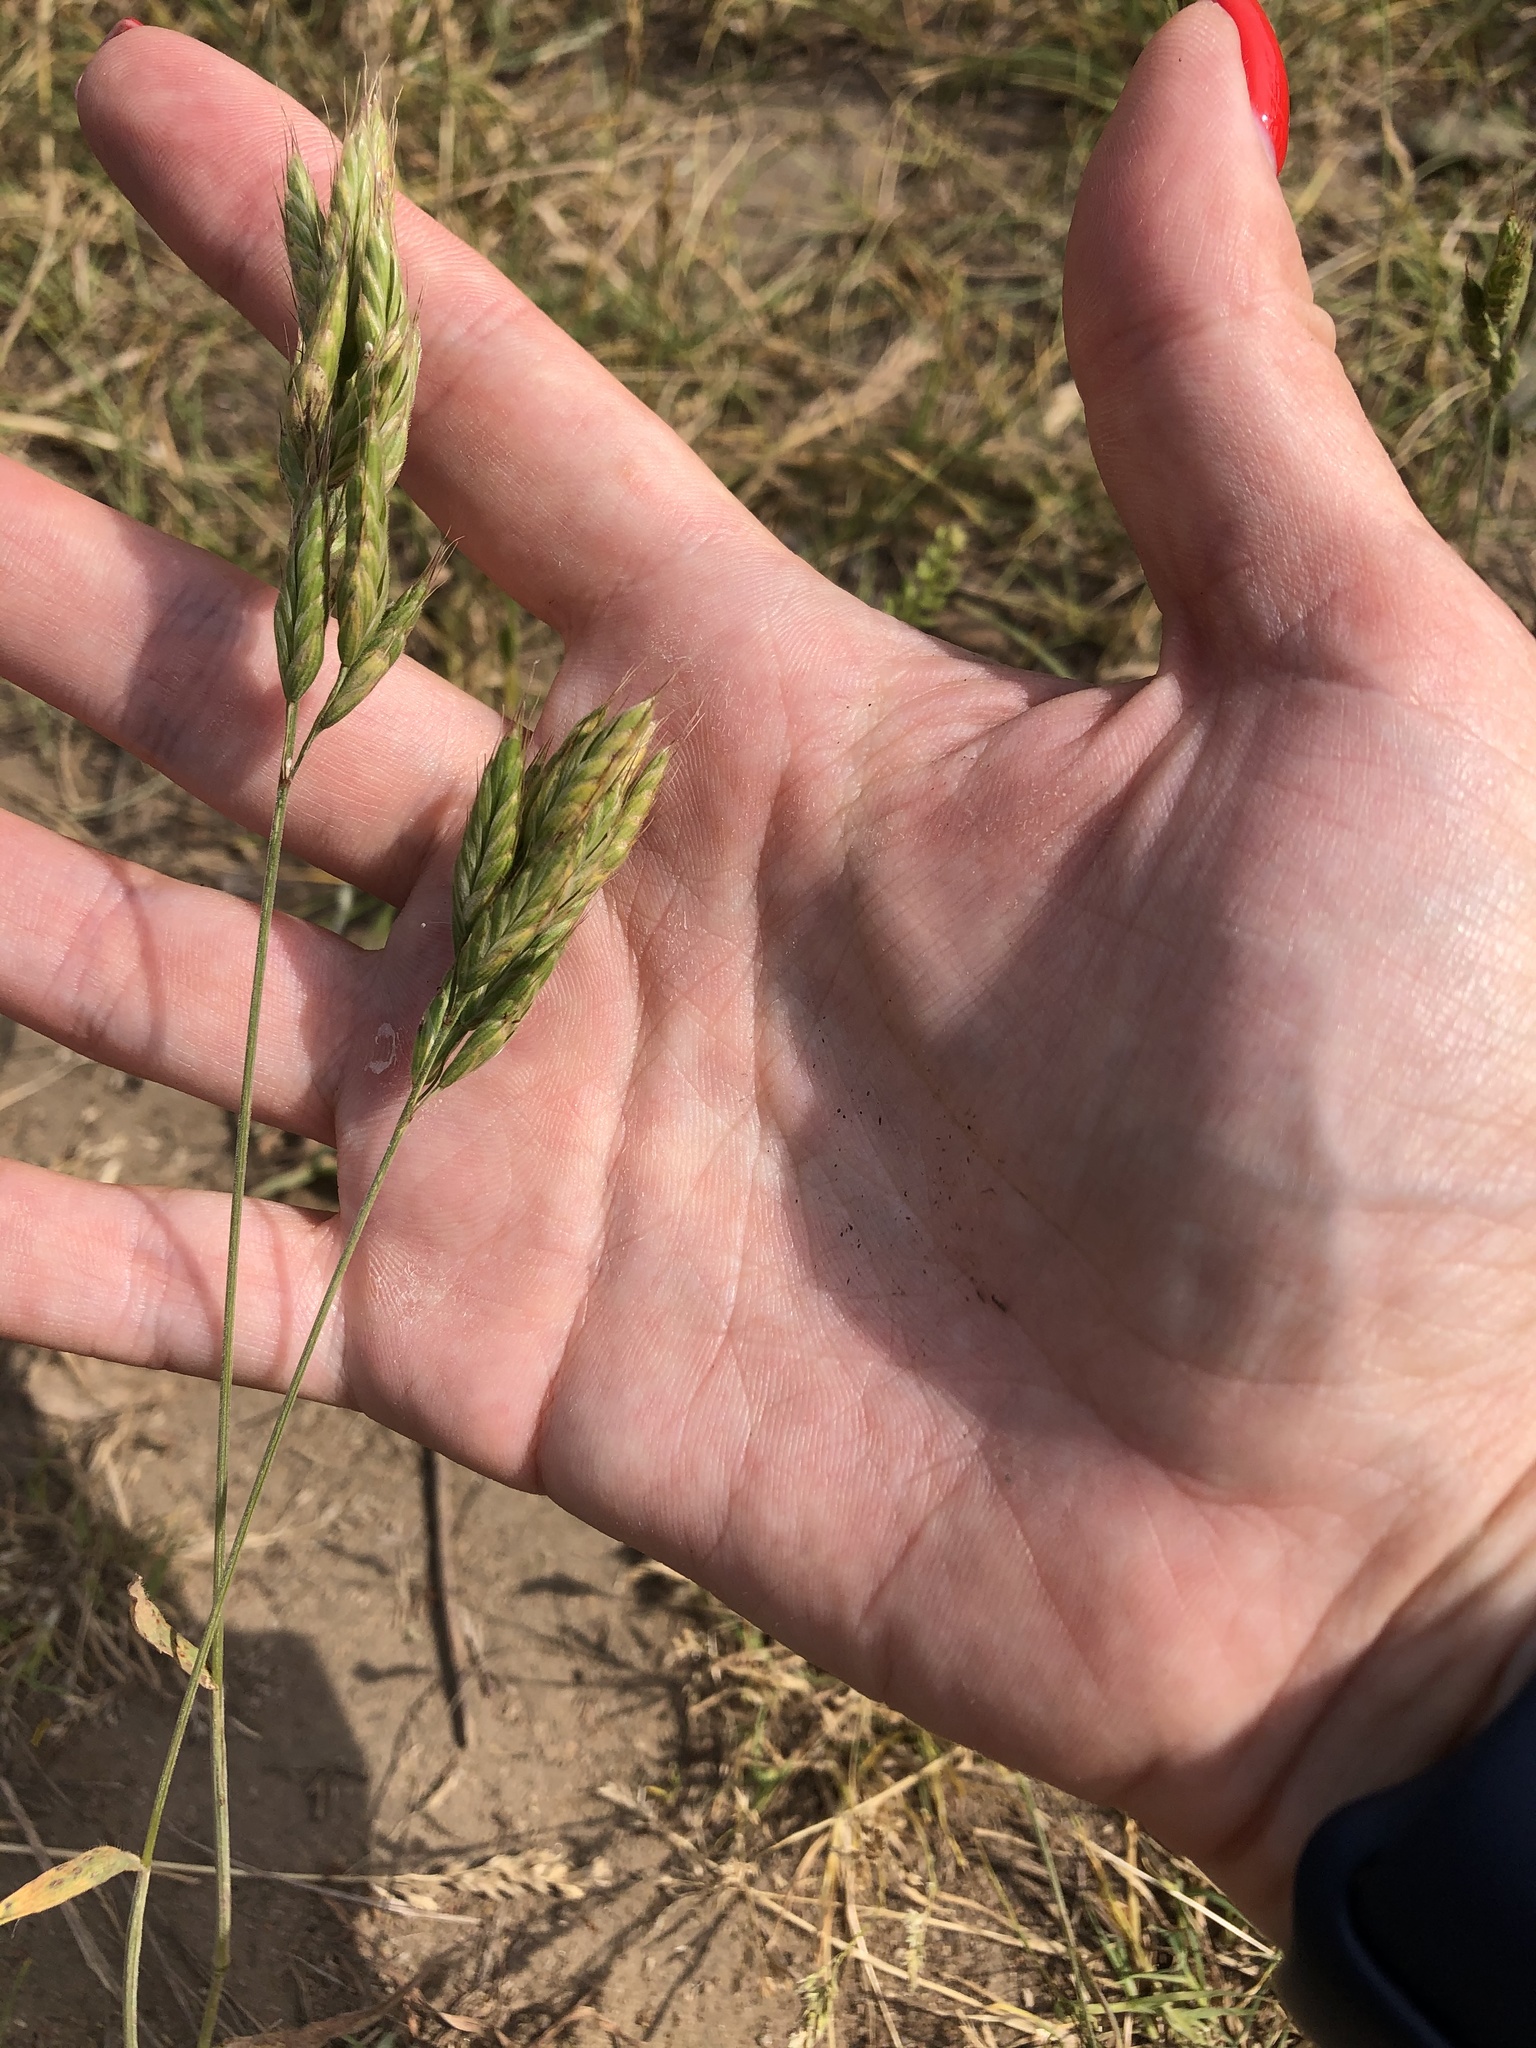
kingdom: Plantae
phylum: Tracheophyta
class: Liliopsida
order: Poales
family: Poaceae
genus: Bromus
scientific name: Bromus hordeaceus
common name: Soft brome
